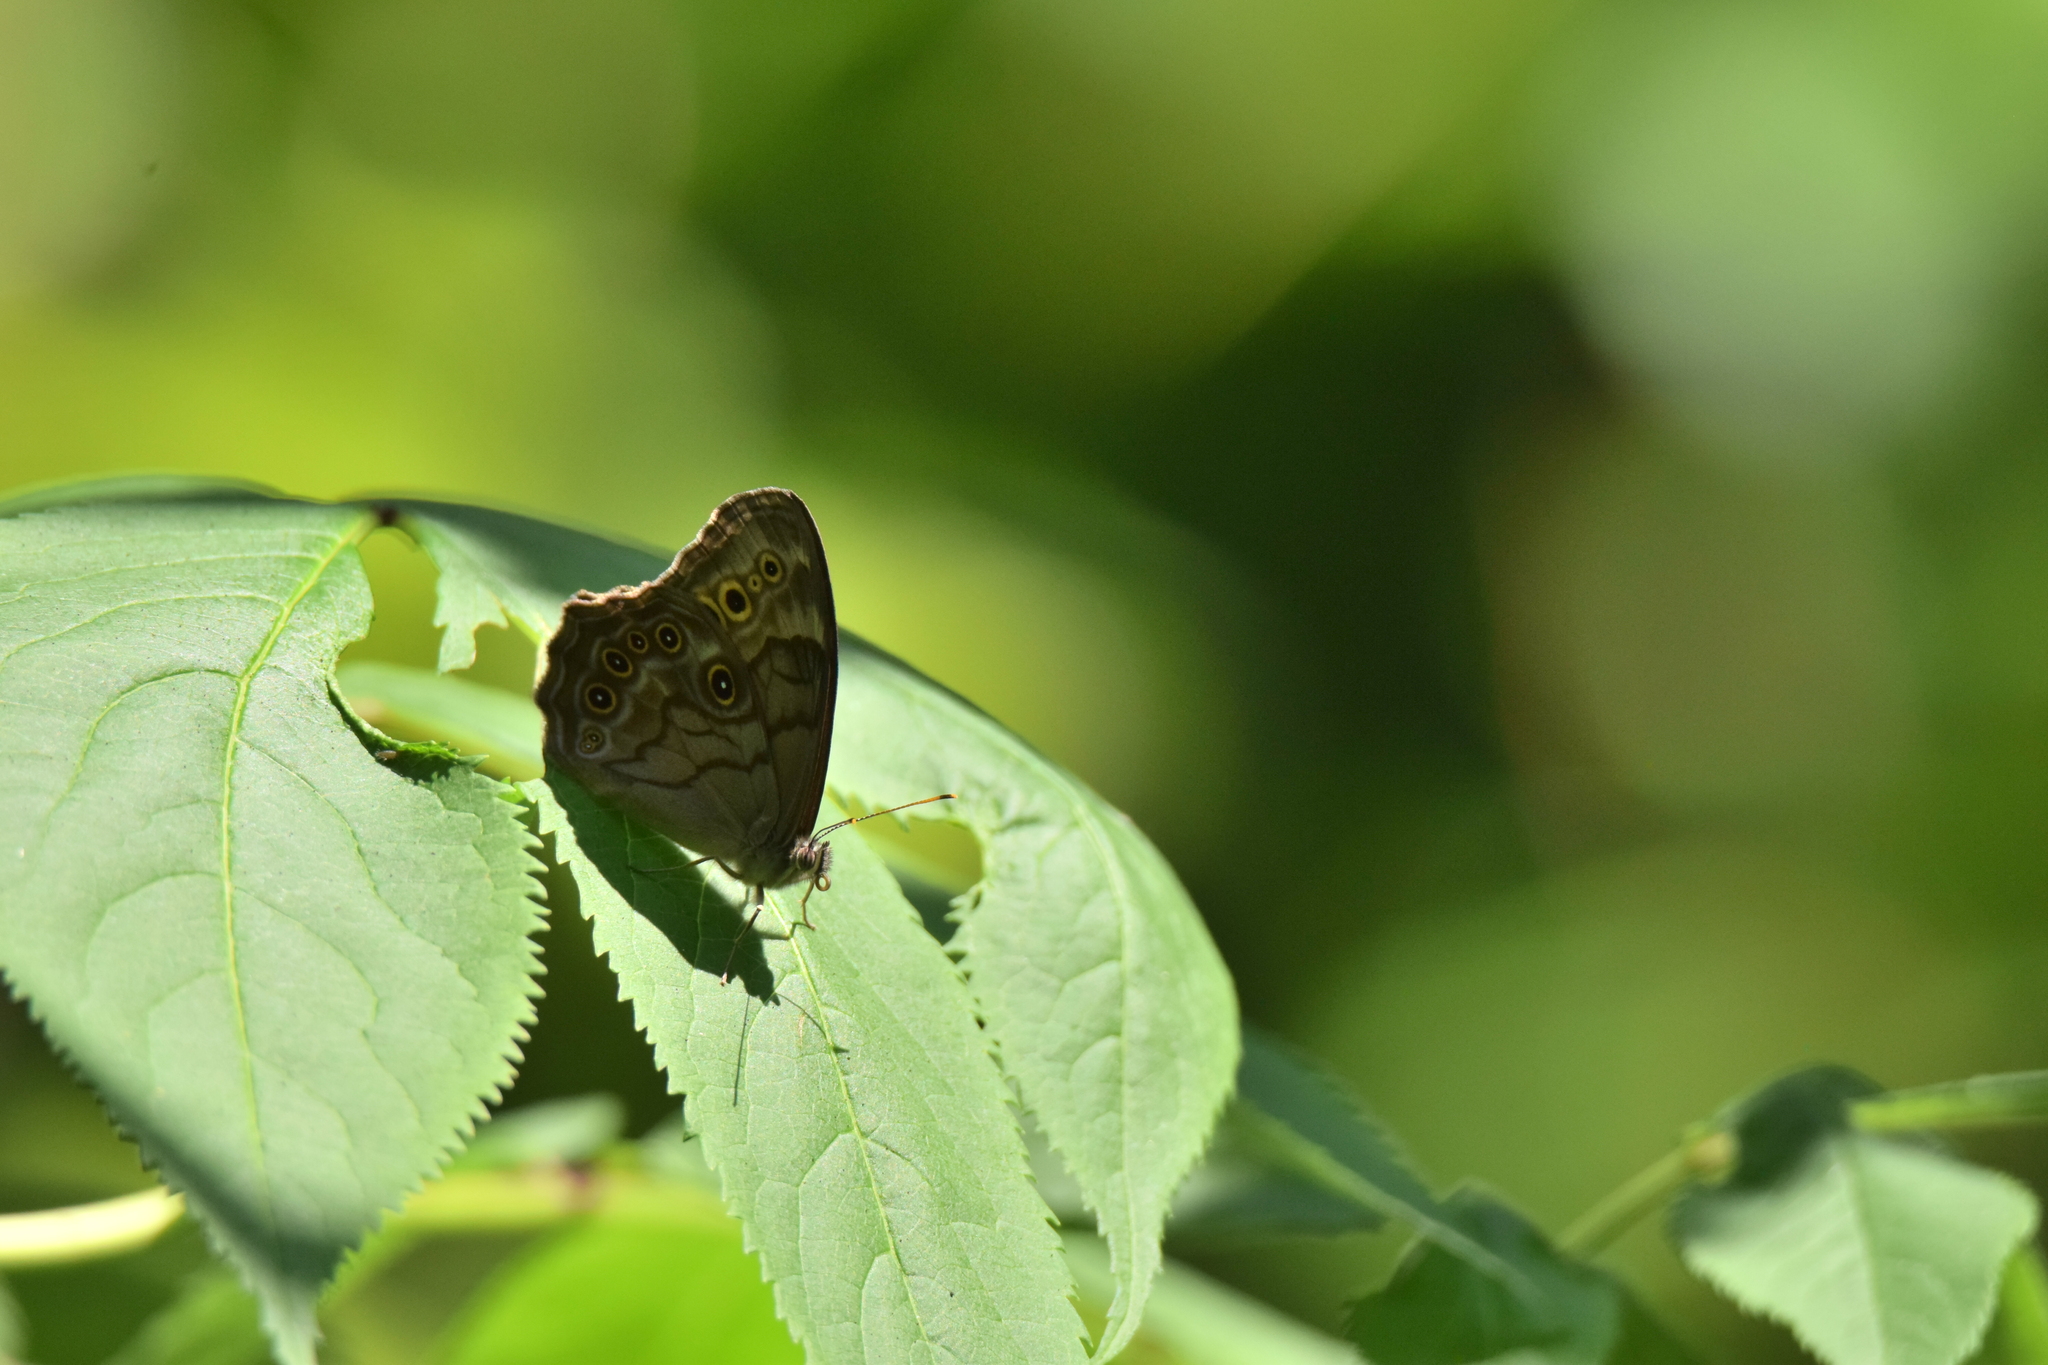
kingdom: Animalia
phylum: Arthropoda
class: Insecta
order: Lepidoptera
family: Nymphalidae
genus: Lethe
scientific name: Lethe anthedon
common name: Northern pearly-eye
